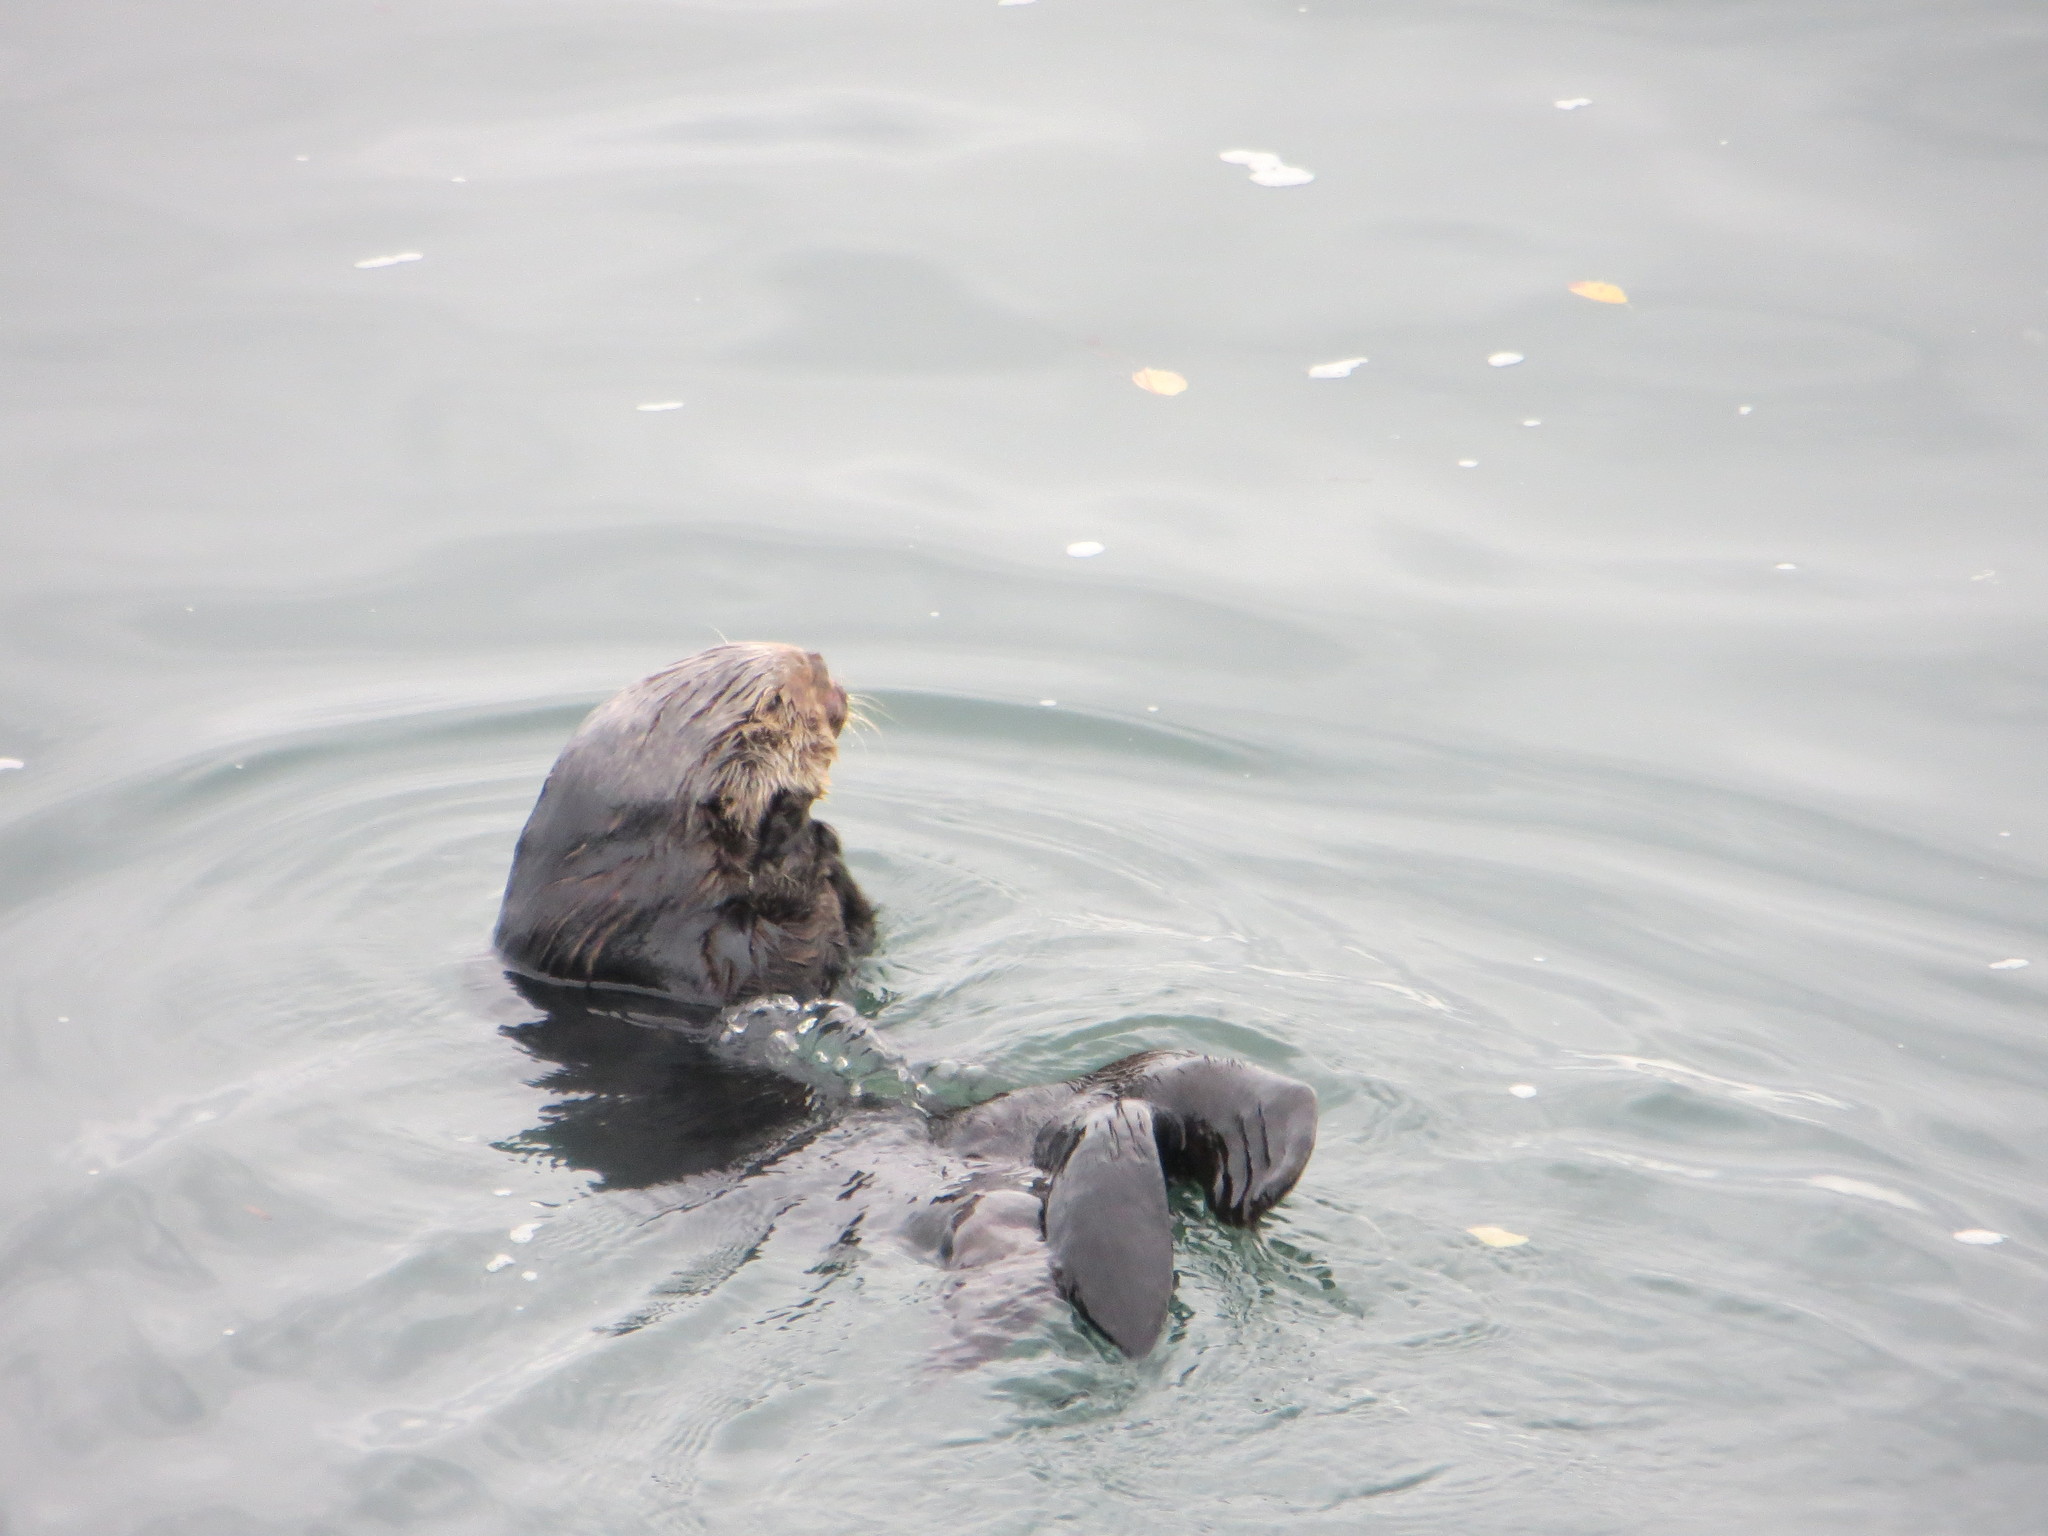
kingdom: Animalia
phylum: Chordata
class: Mammalia
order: Carnivora
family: Mustelidae
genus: Enhydra
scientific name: Enhydra lutris
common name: Sea otter
